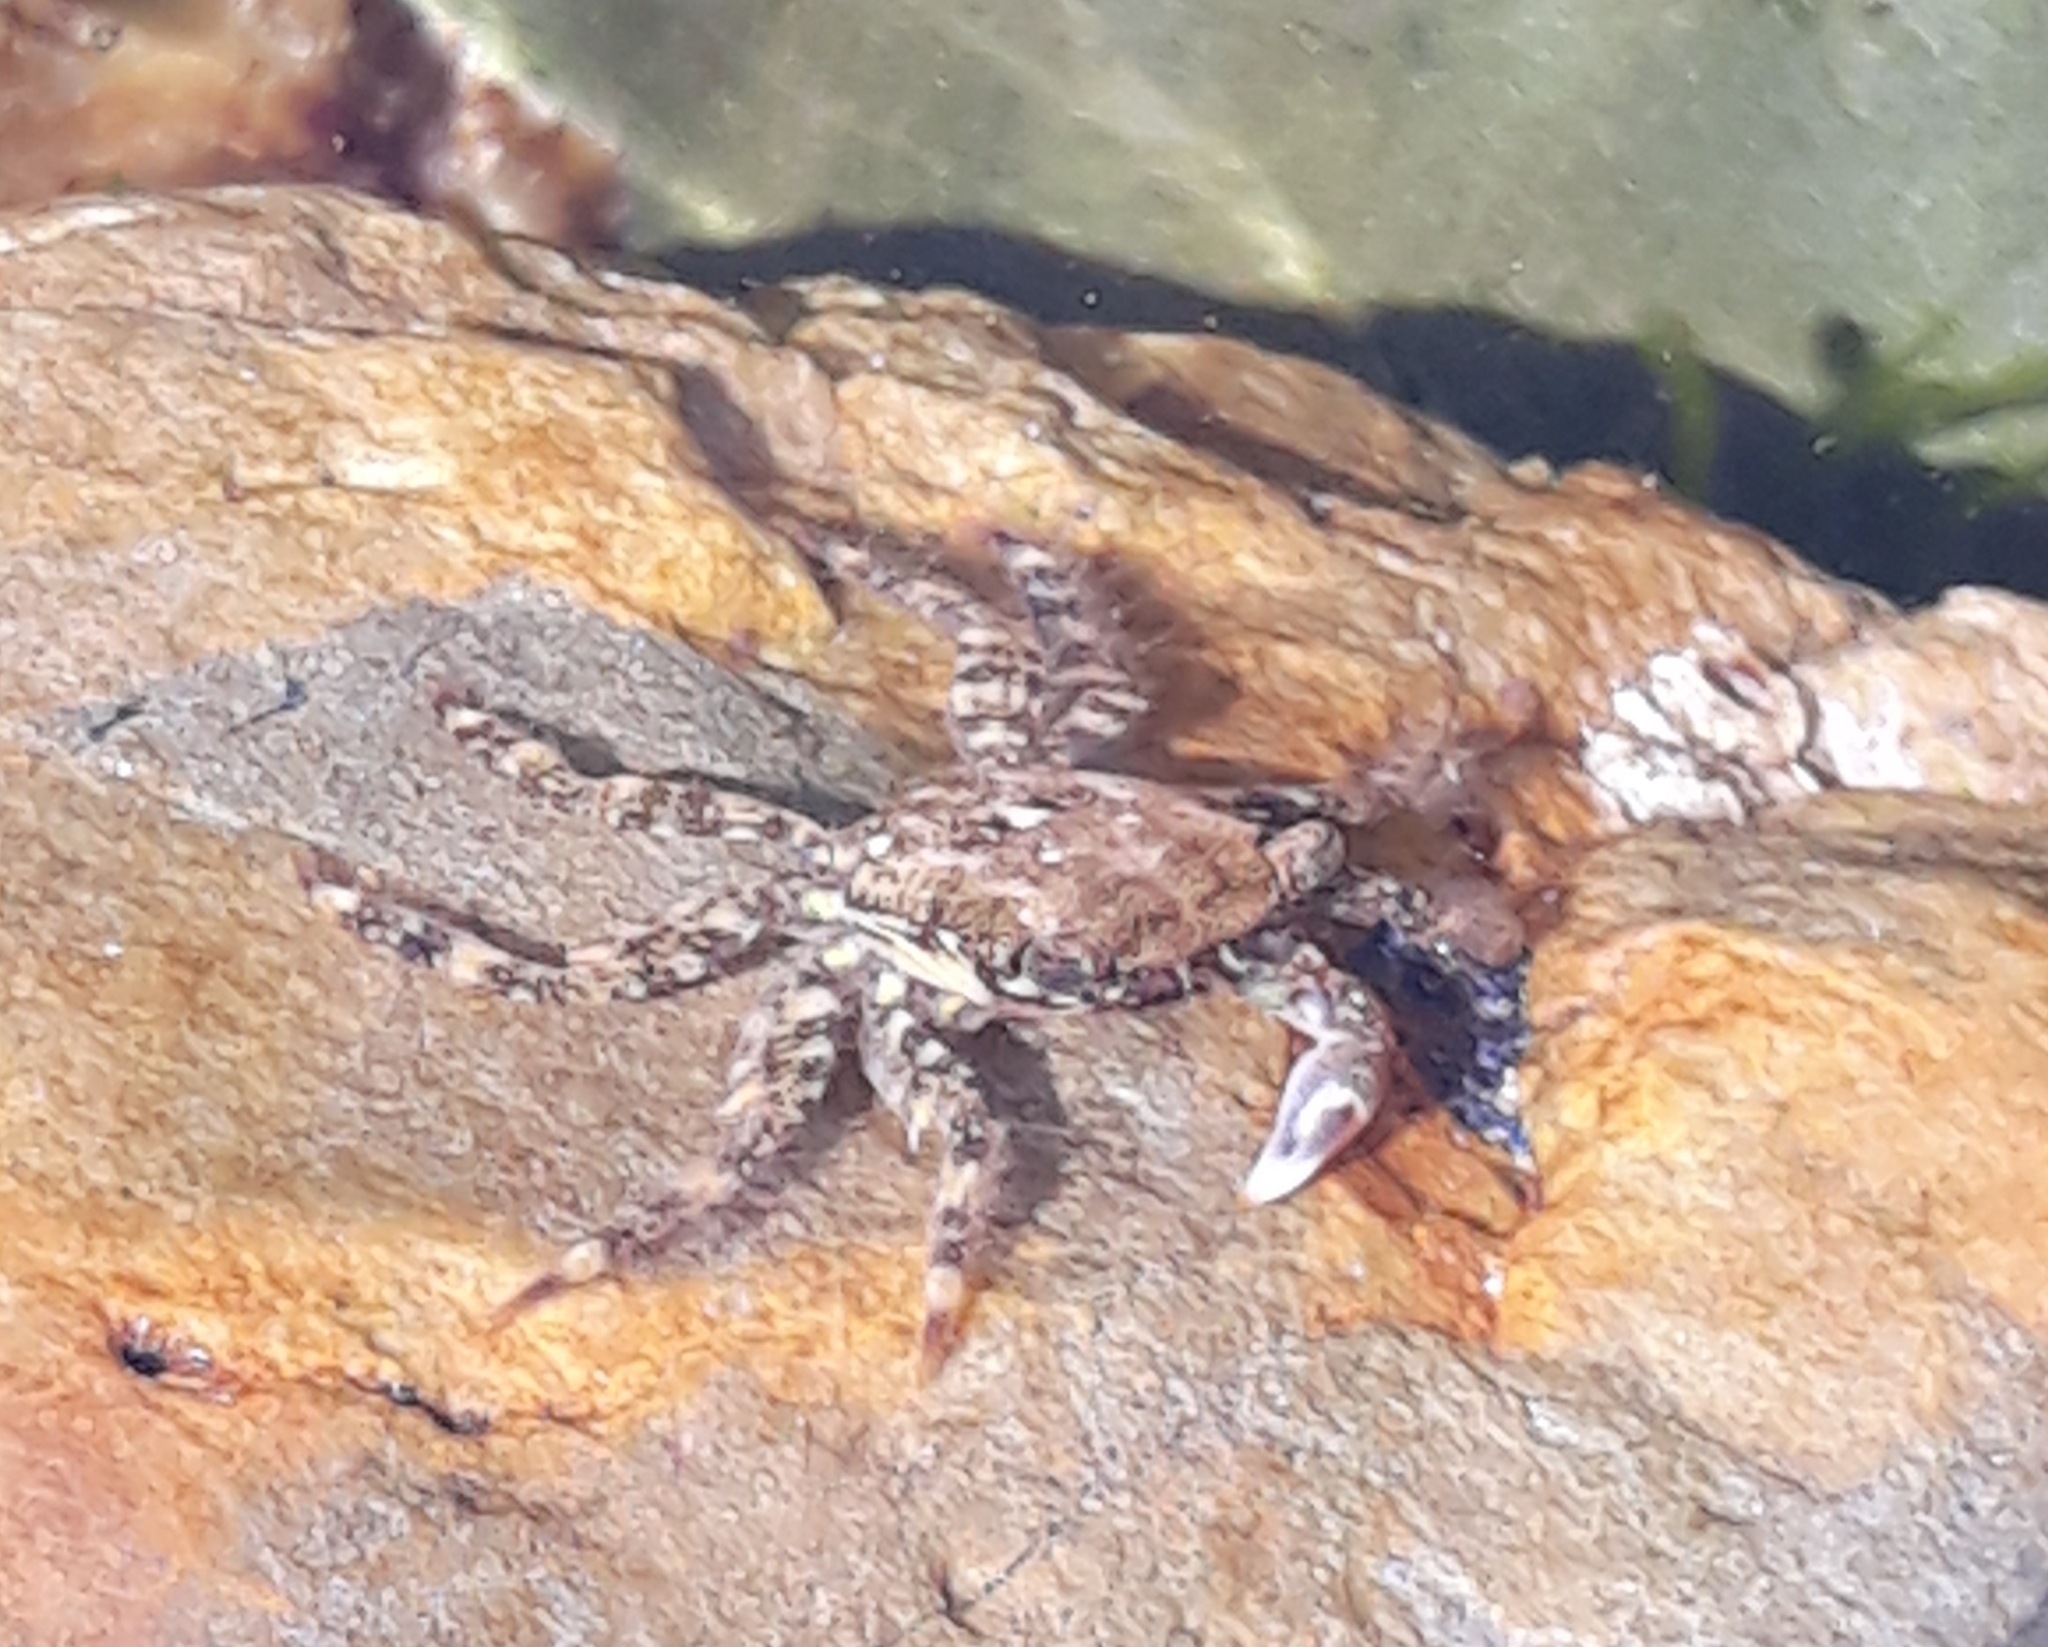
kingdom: Animalia
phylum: Arthropoda
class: Malacostraca
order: Decapoda
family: Grapsidae
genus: Pachygrapsus
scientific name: Pachygrapsus marmoratus
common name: Marbled rock crab
